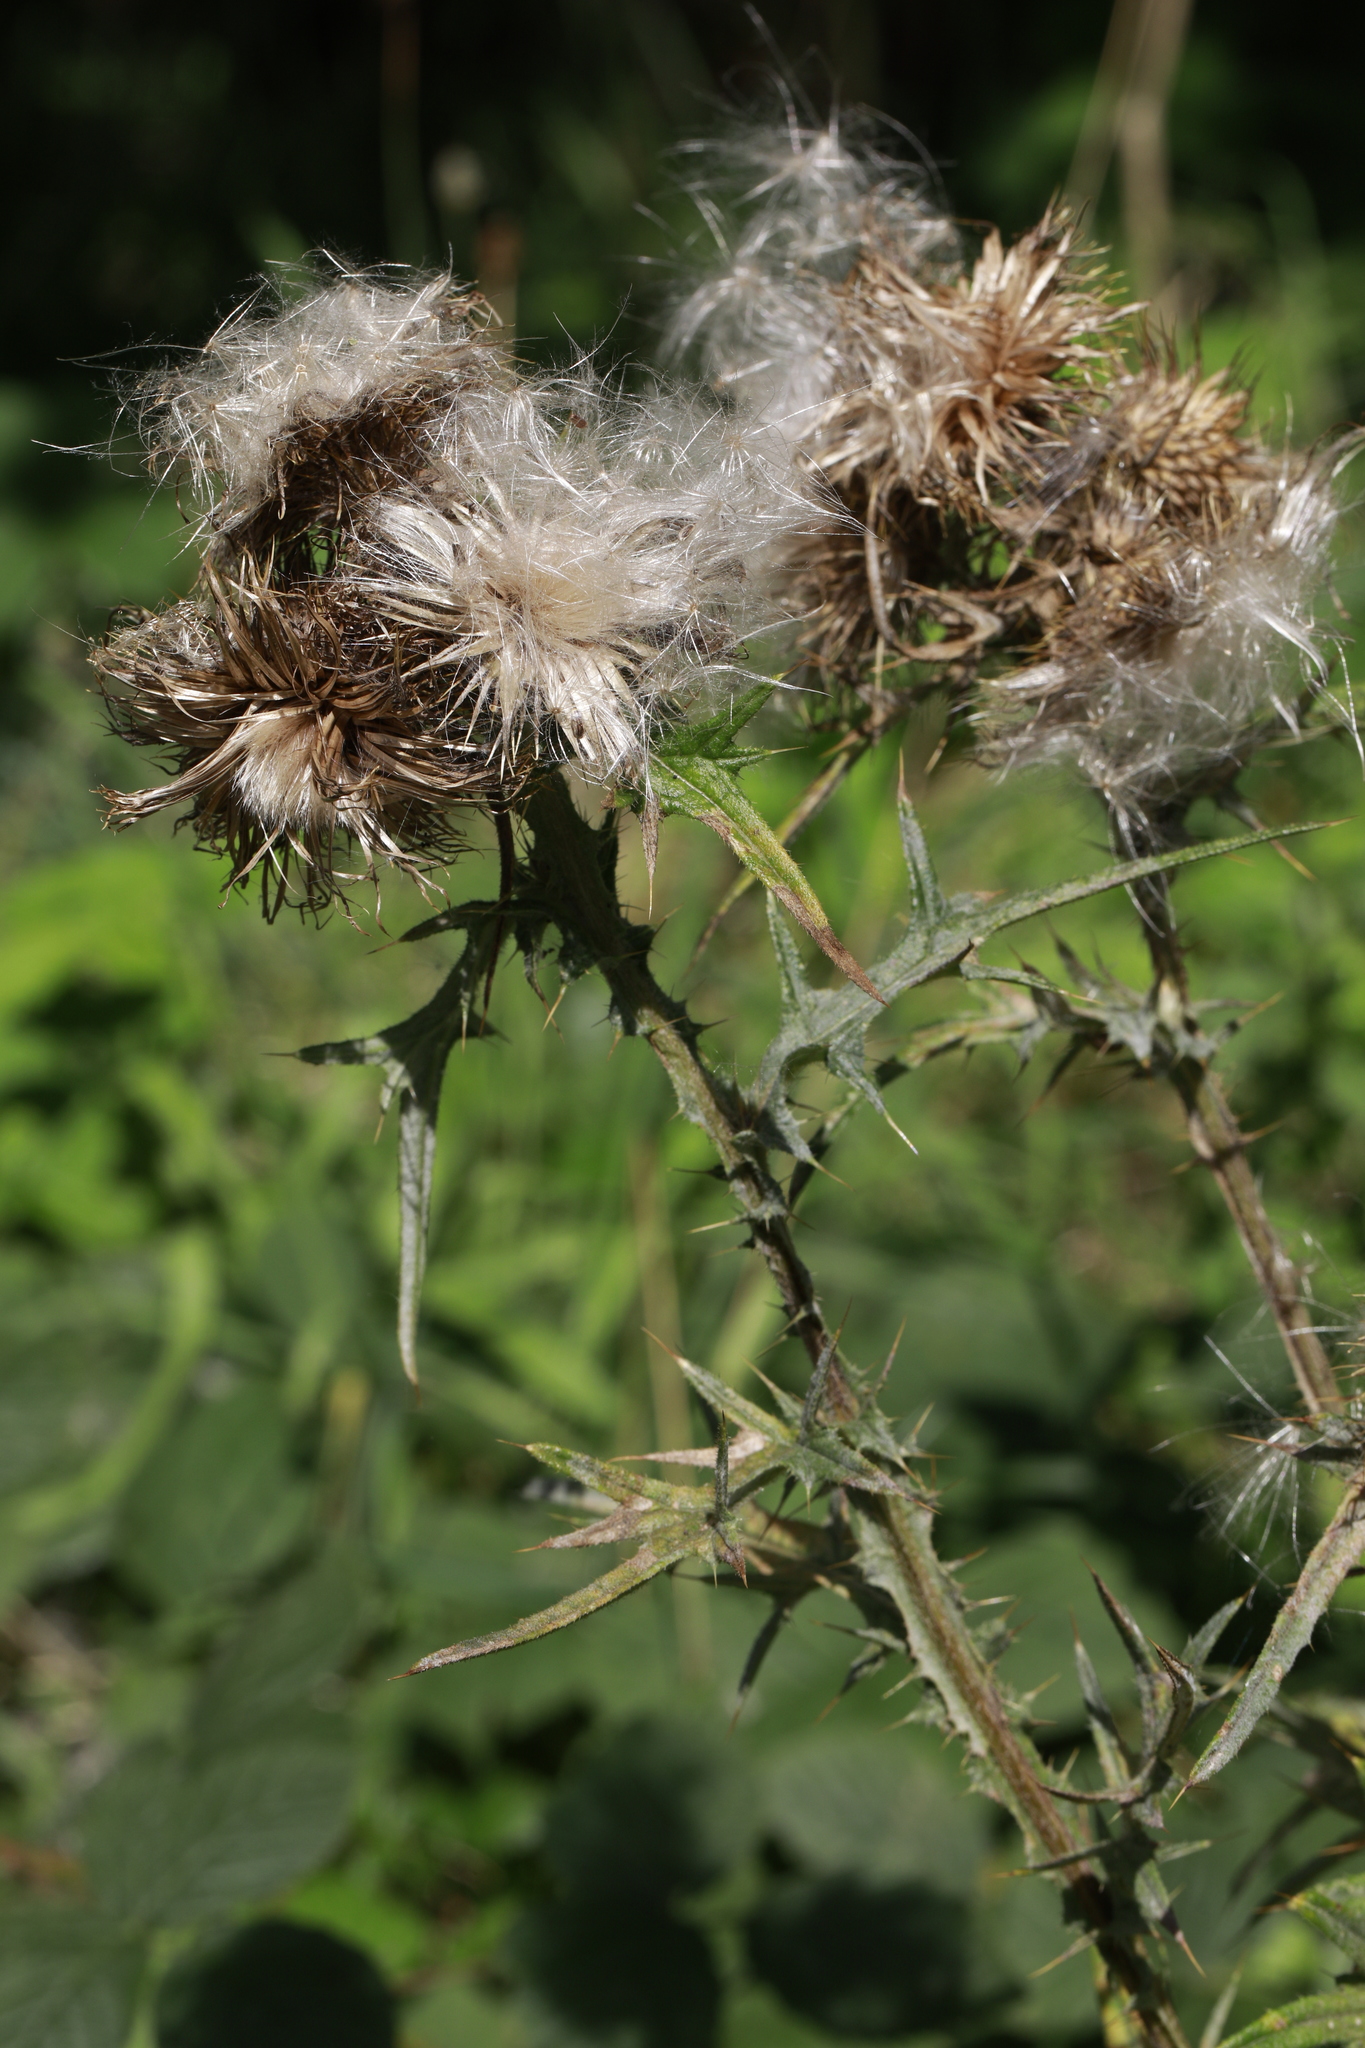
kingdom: Plantae
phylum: Tracheophyta
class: Magnoliopsida
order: Asterales
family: Asteraceae
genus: Cirsium
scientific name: Cirsium vulgare
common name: Bull thistle
